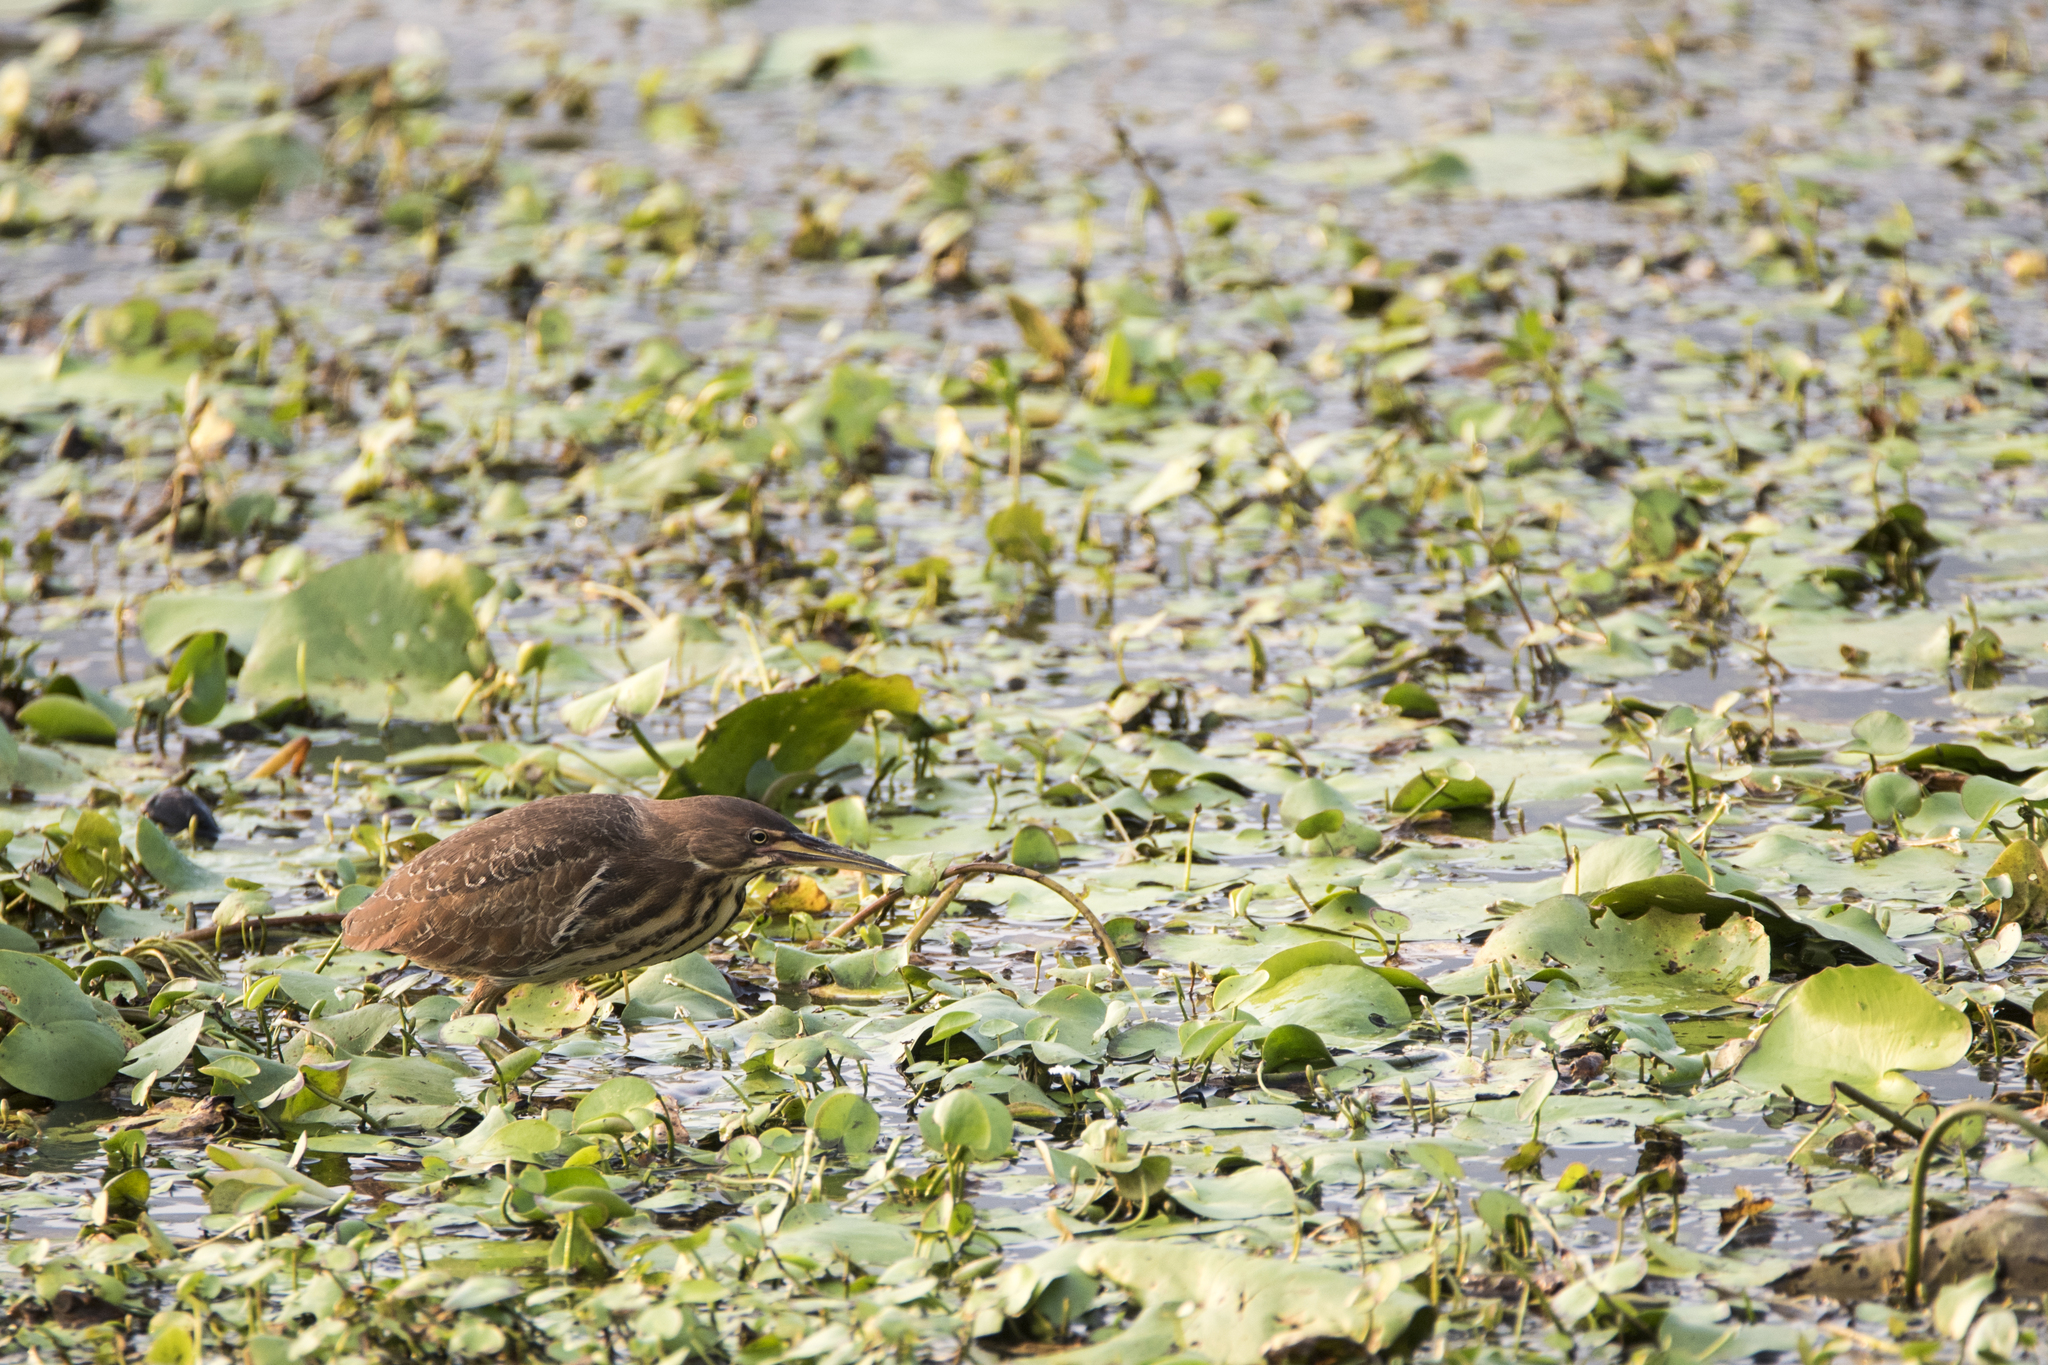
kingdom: Animalia
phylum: Chordata
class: Aves
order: Pelecaniformes
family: Ardeidae
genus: Ixobrychus
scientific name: Ixobrychus cinnamomeus
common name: Cinnamon bittern
